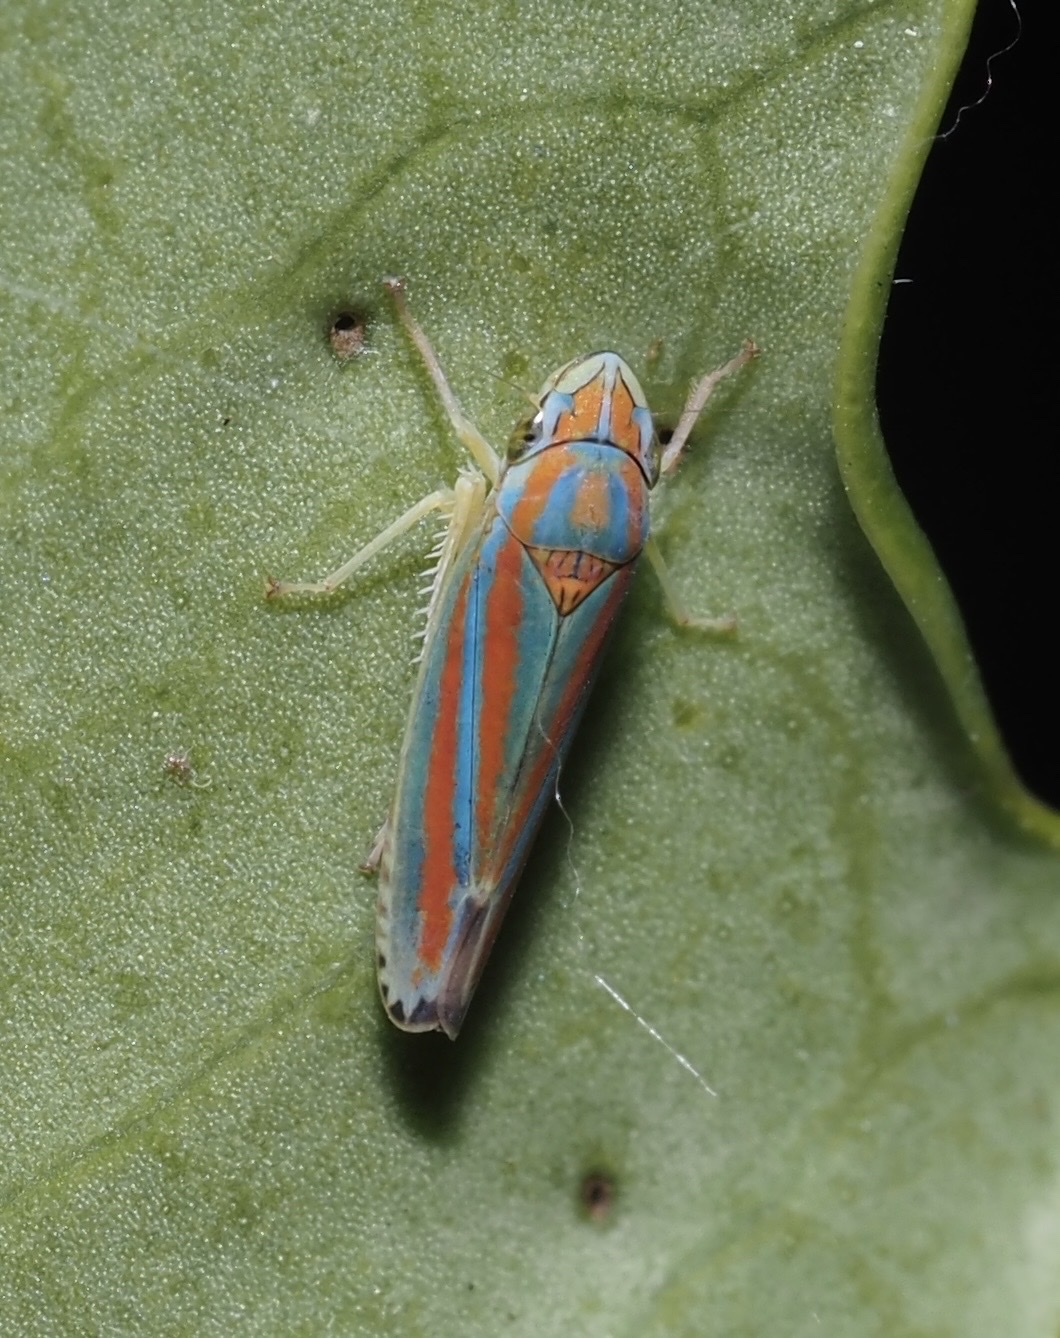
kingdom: Animalia
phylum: Arthropoda
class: Insecta
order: Hemiptera
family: Cicadellidae
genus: Graphocephala
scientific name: Graphocephala versuta
